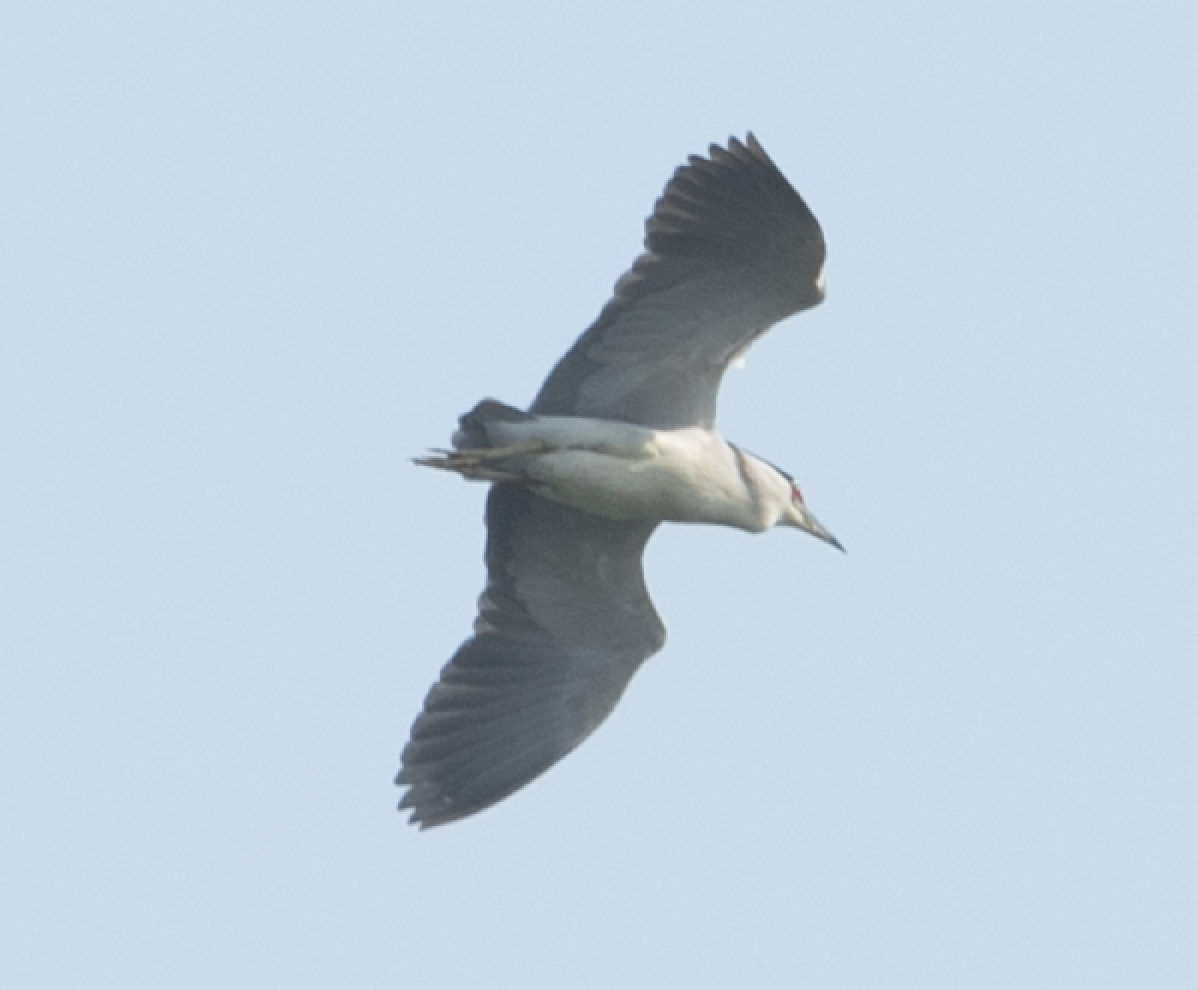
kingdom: Animalia
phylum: Chordata
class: Aves
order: Pelecaniformes
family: Ardeidae
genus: Nycticorax
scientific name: Nycticorax nycticorax
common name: Black-crowned night heron
